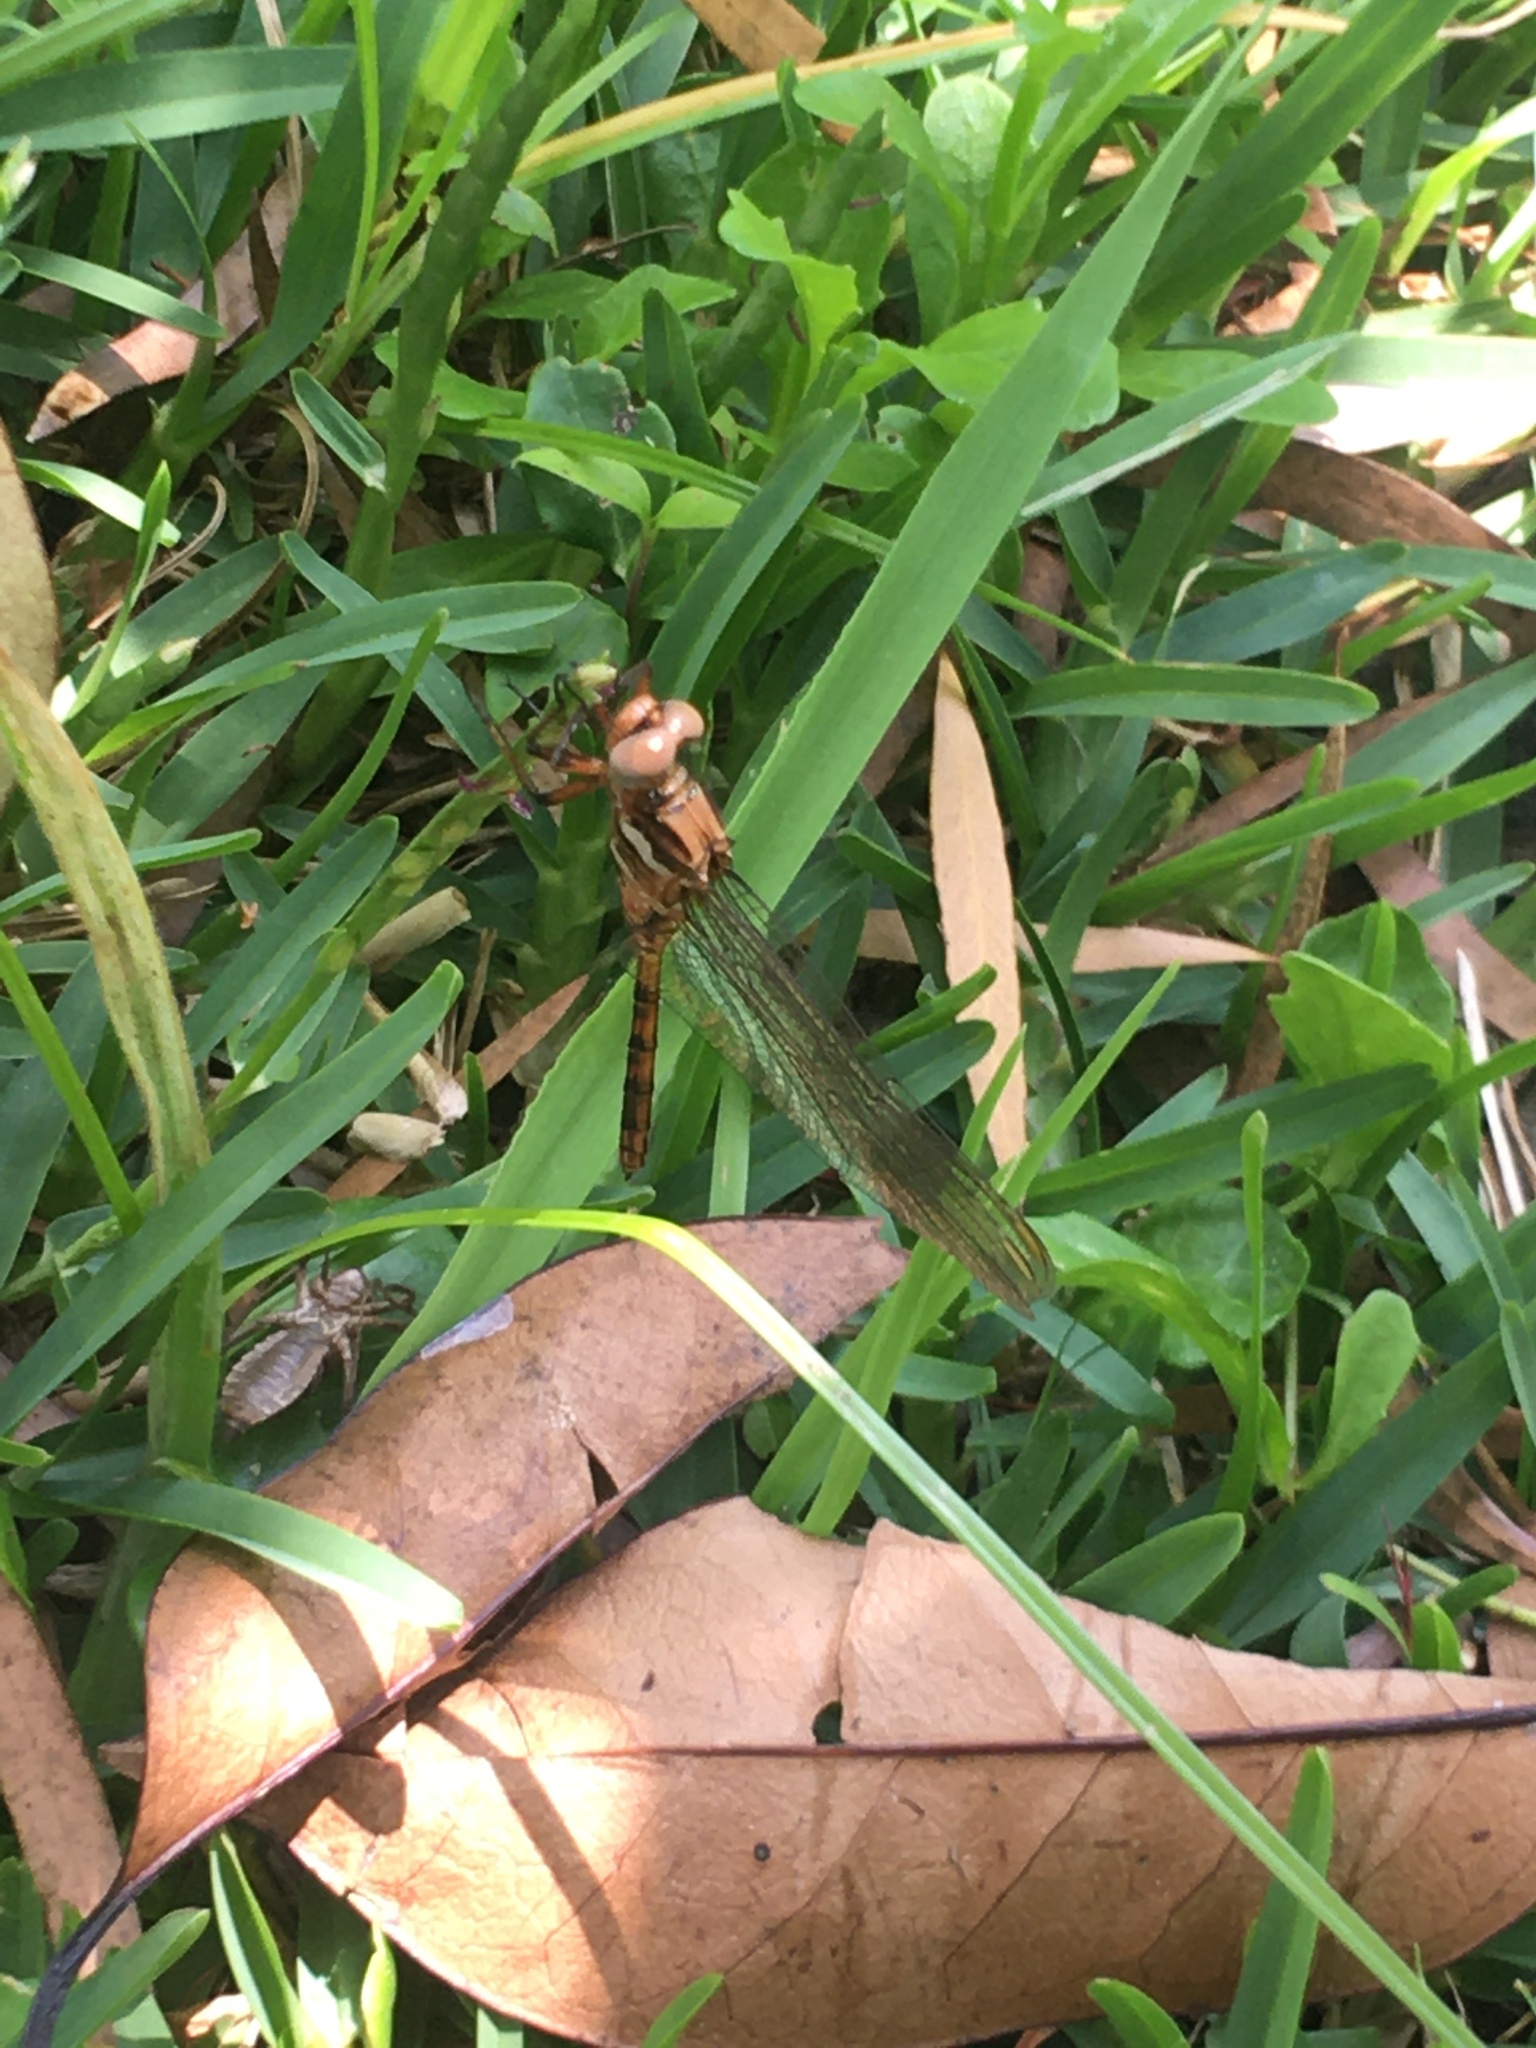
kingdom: Animalia
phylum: Arthropoda
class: Insecta
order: Odonata
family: Libellulidae
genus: Orthetrum
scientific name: Orthetrum julia
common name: Julia skimmer
